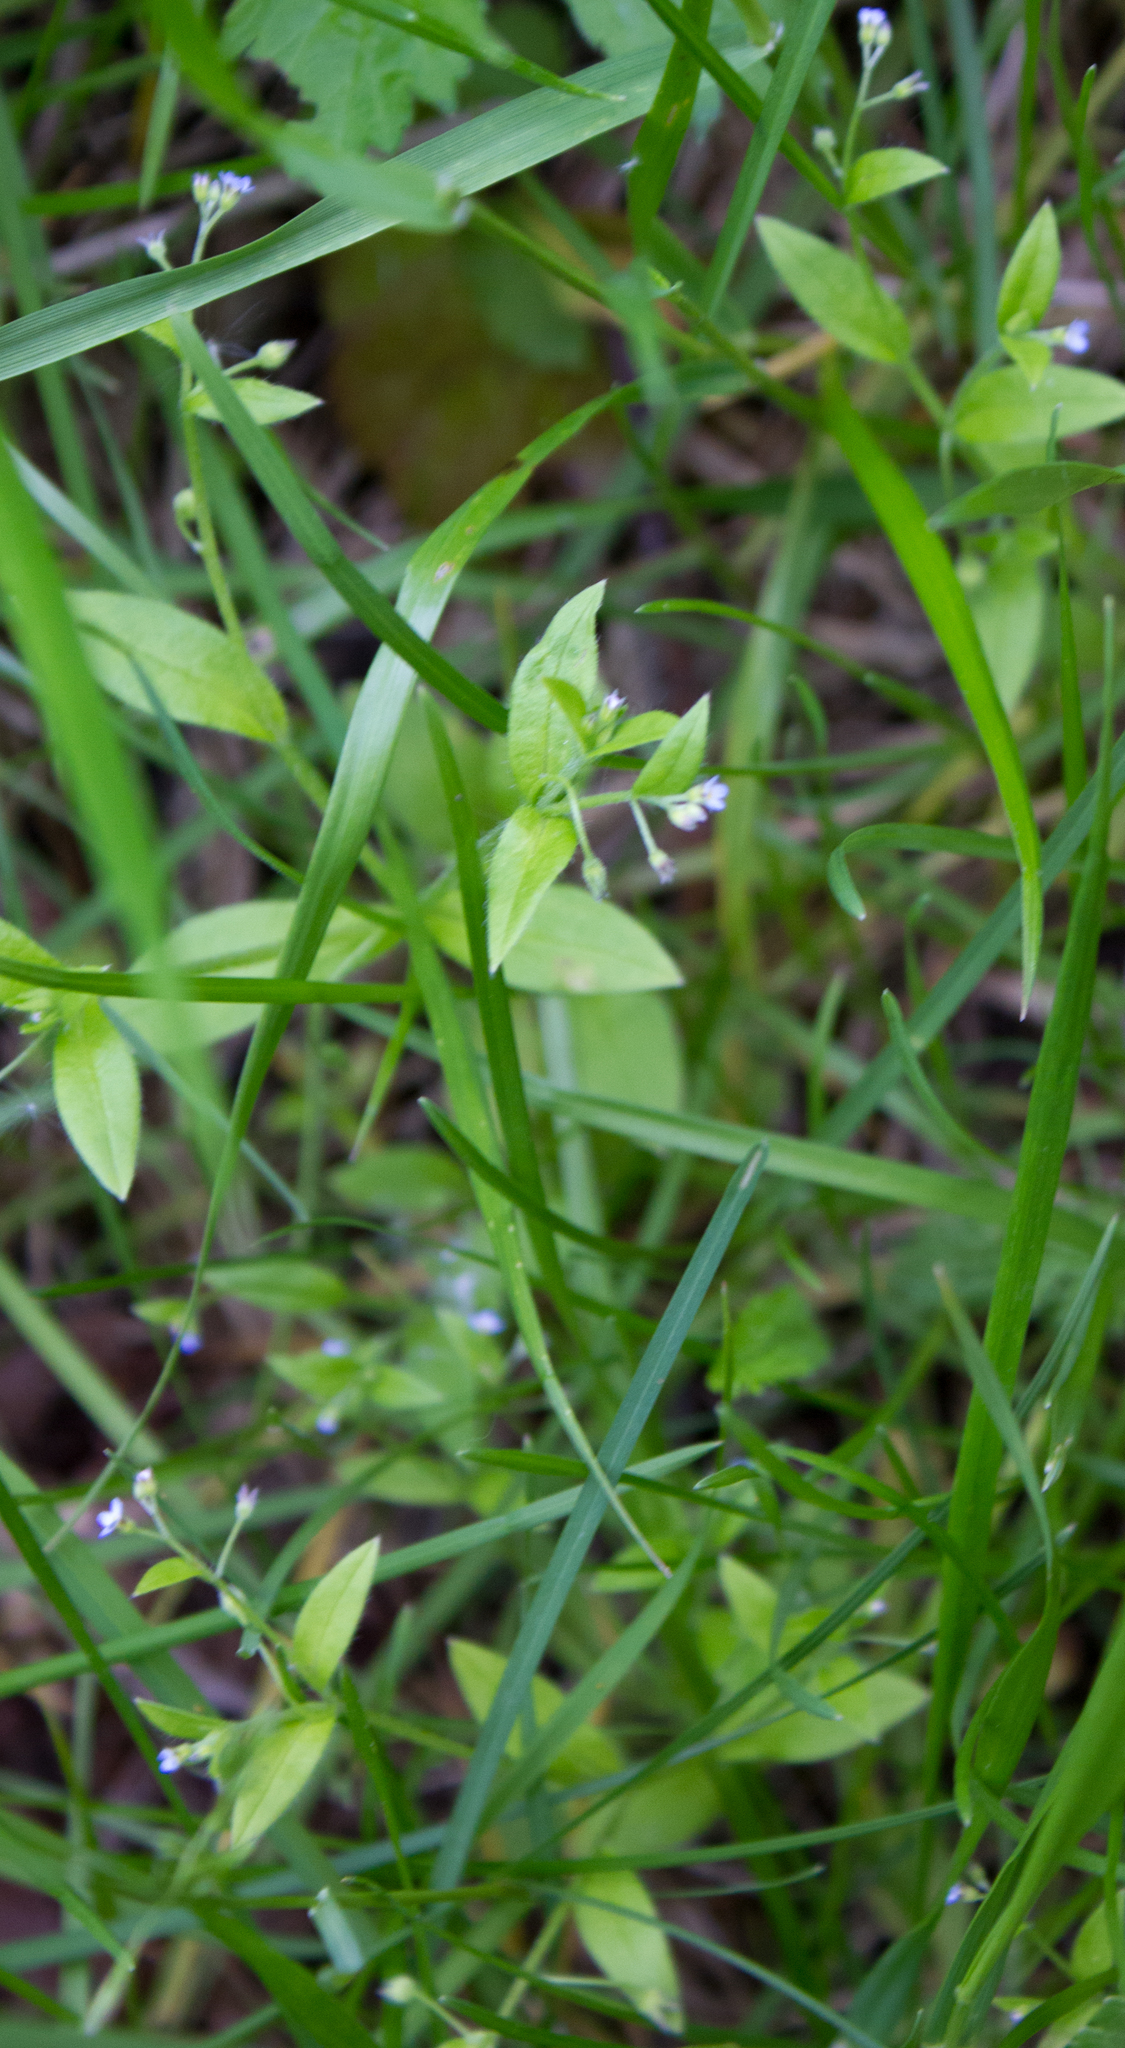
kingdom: Plantae
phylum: Tracheophyta
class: Magnoliopsida
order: Boraginales
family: Boraginaceae
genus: Myosotis
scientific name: Myosotis sparsiflora
